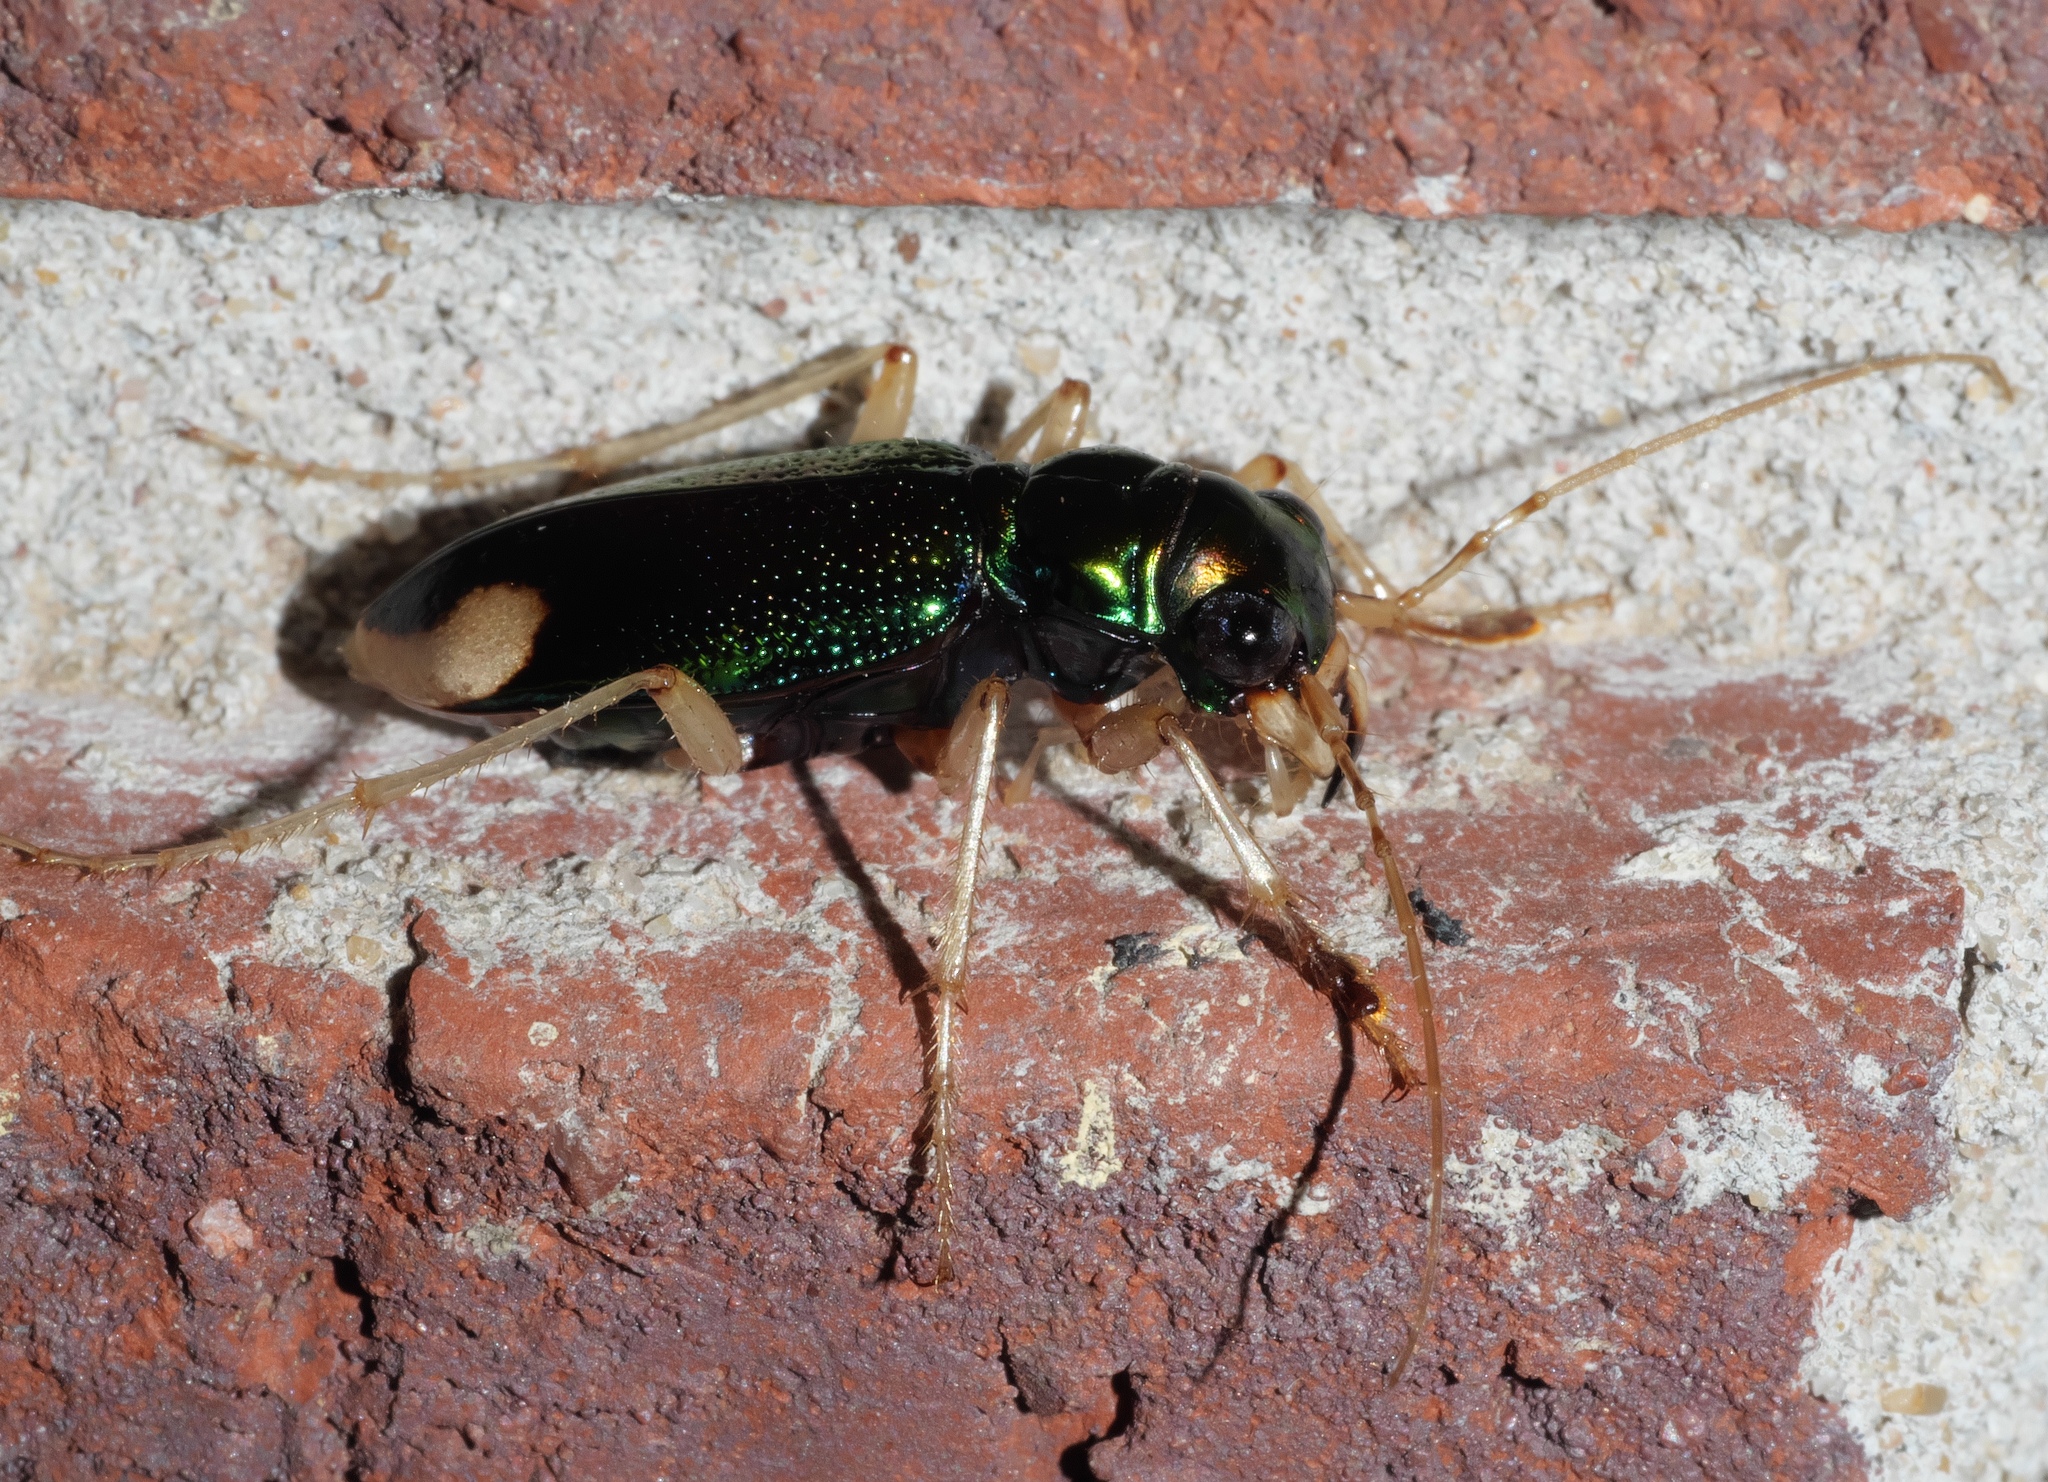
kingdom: Animalia
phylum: Arthropoda
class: Insecta
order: Coleoptera
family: Carabidae
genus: Tetracha
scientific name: Tetracha carolina
